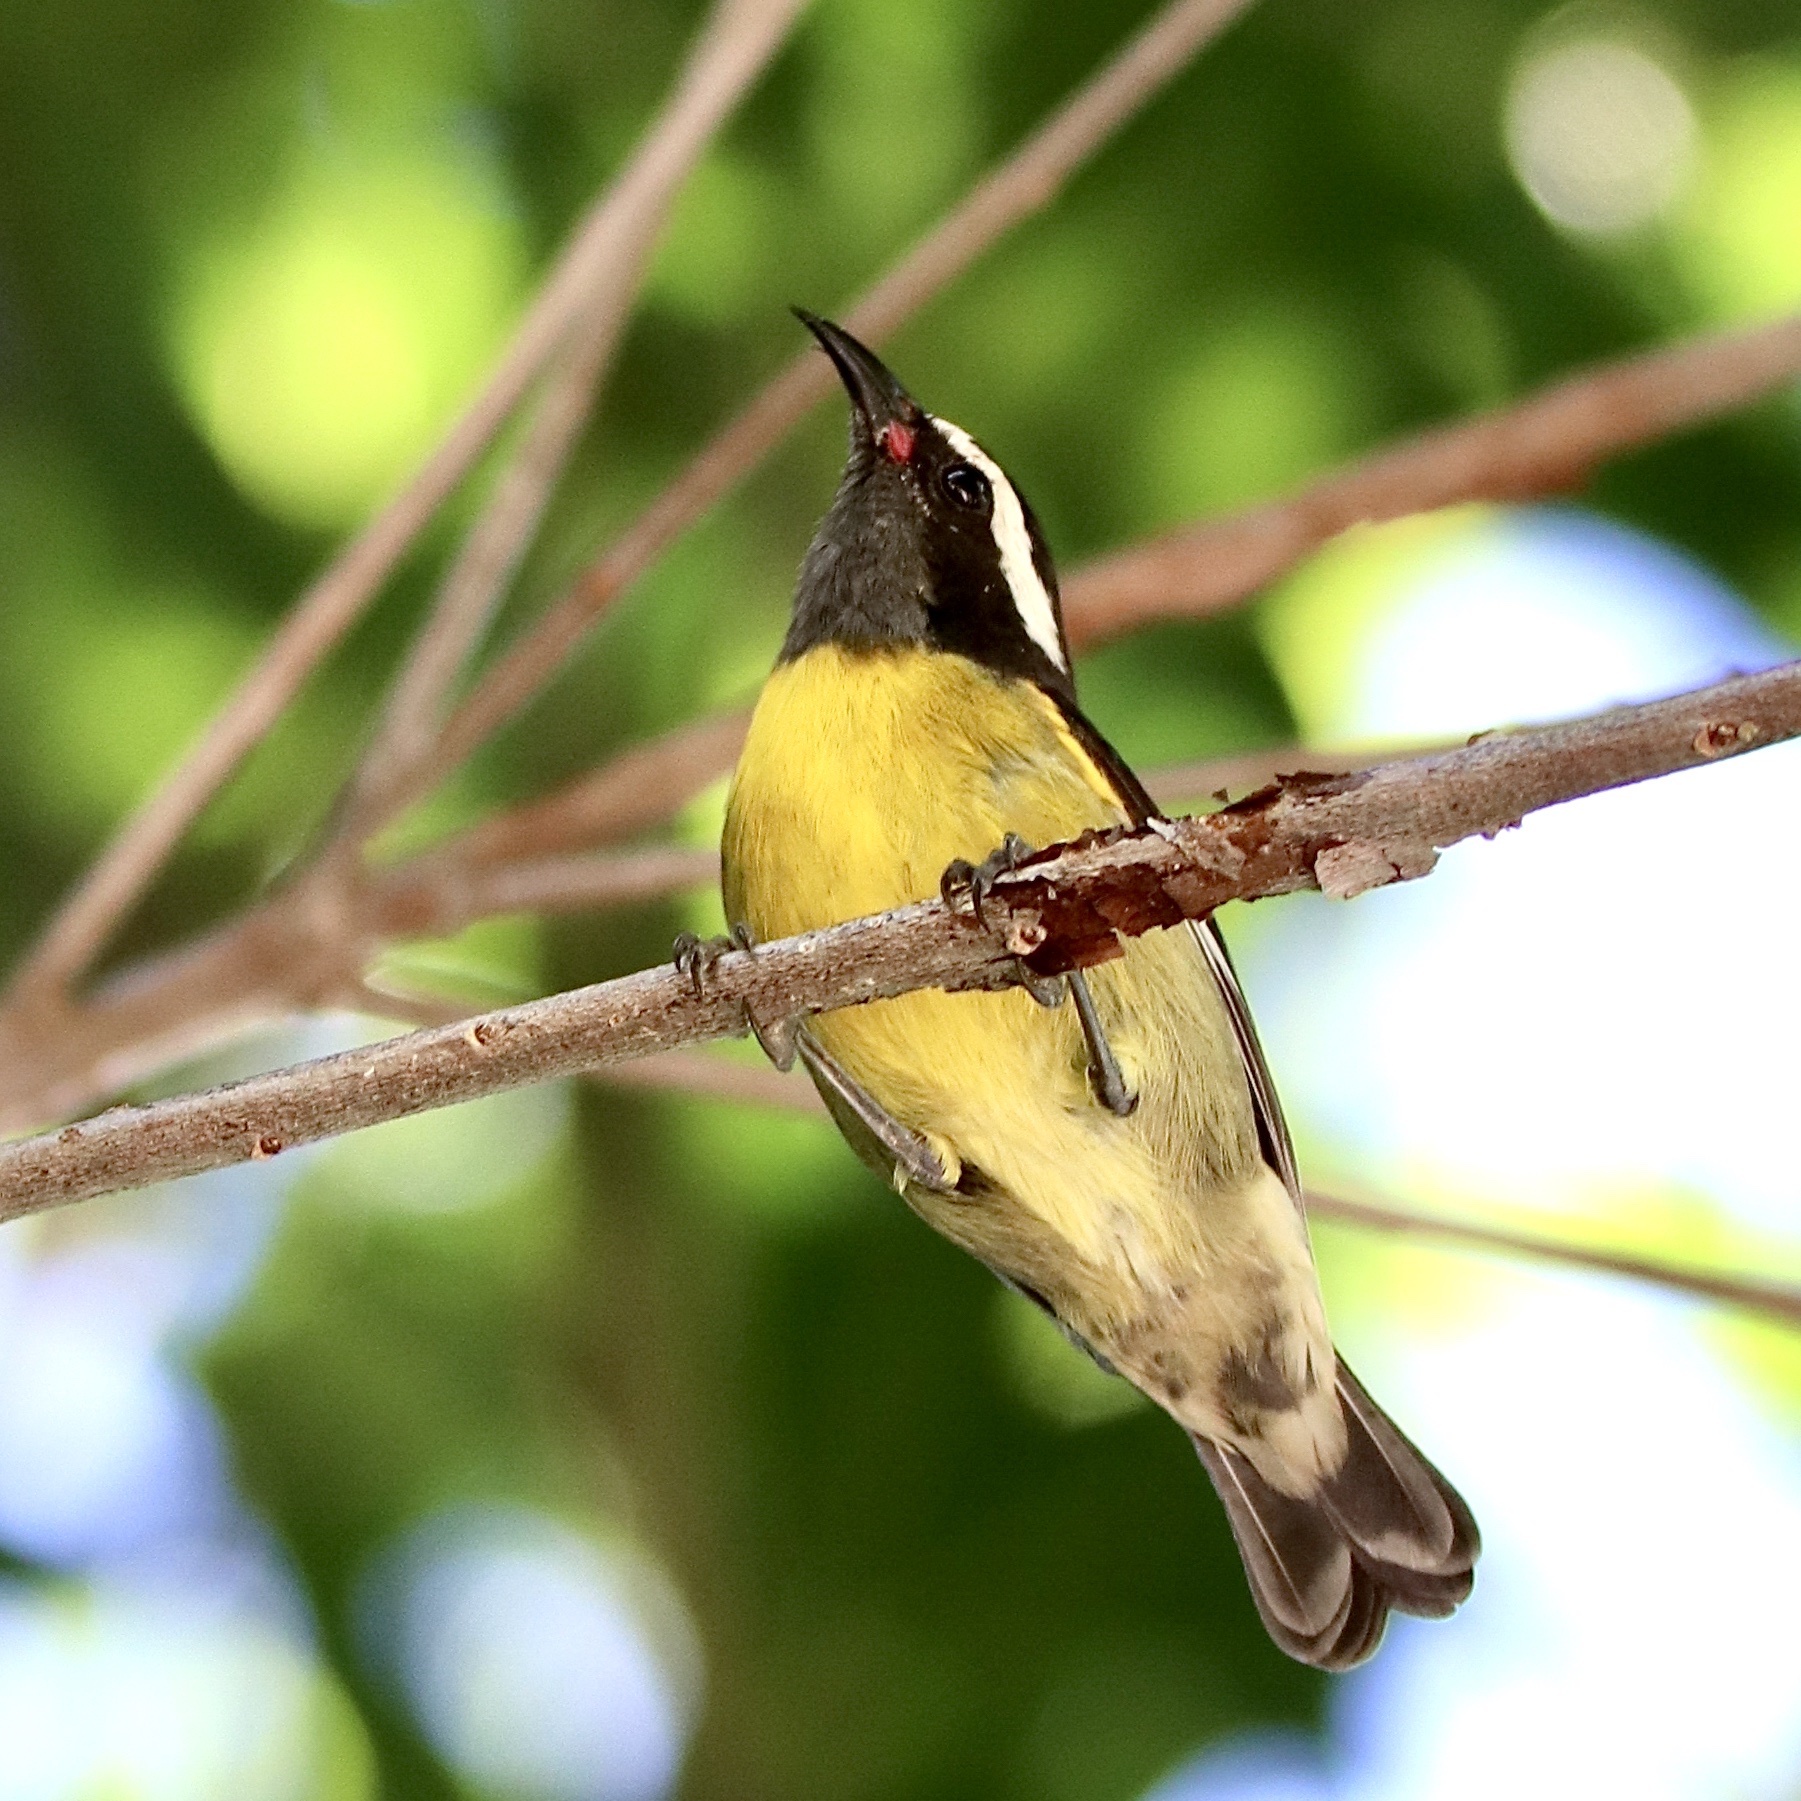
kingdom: Animalia
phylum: Chordata
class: Aves
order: Passeriformes
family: Thraupidae
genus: Coereba
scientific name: Coereba flaveola
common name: Bananaquit
